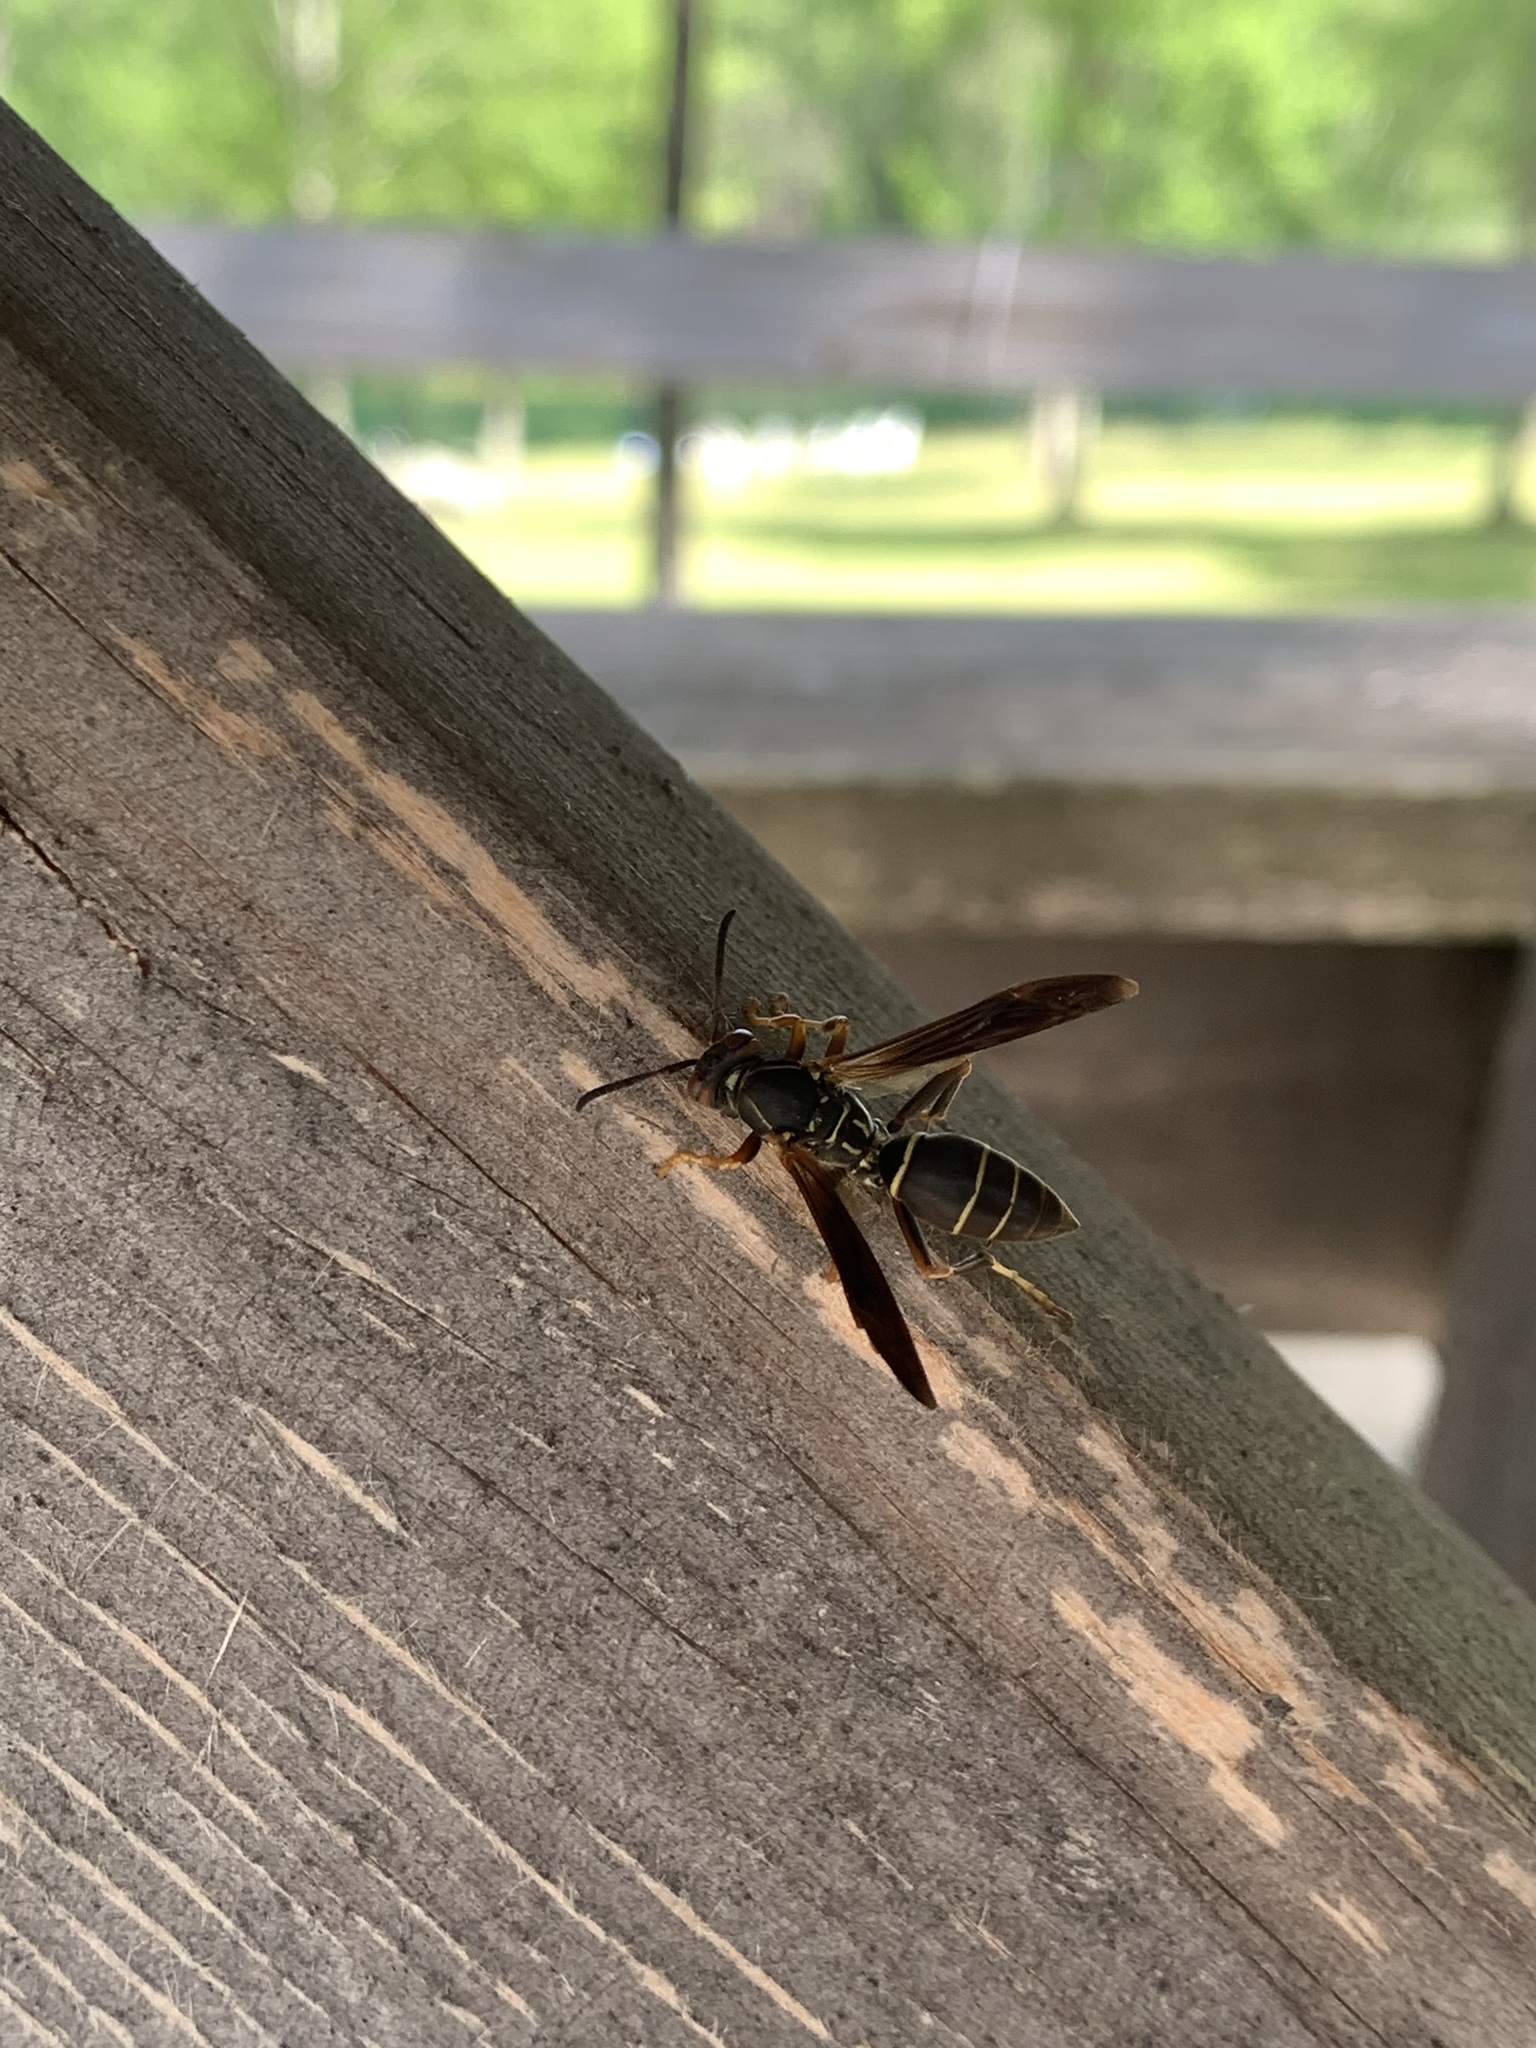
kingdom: Animalia
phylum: Arthropoda
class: Insecta
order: Hymenoptera
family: Eumenidae
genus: Polistes
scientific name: Polistes fuscatus
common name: Dark paper wasp
